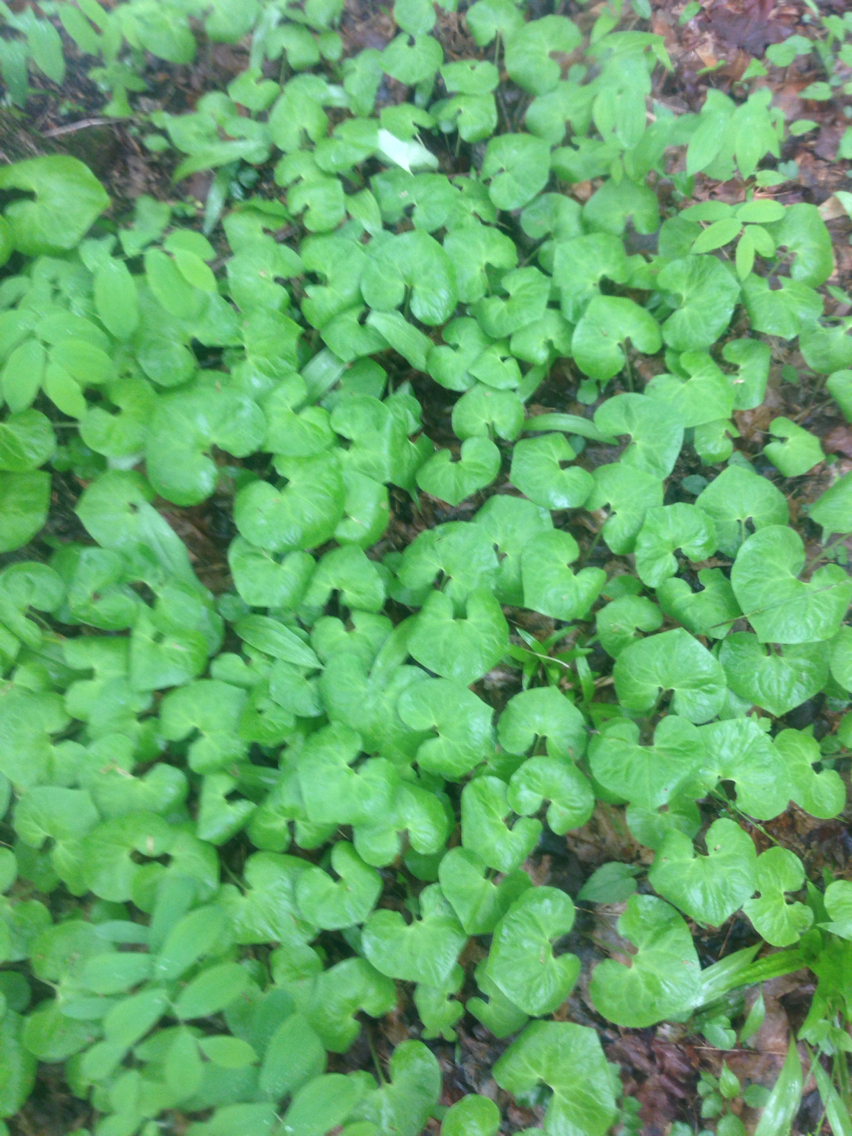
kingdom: Plantae
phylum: Tracheophyta
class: Magnoliopsida
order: Piperales
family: Aristolochiaceae
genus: Asarum
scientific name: Asarum canadense
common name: Wild ginger
